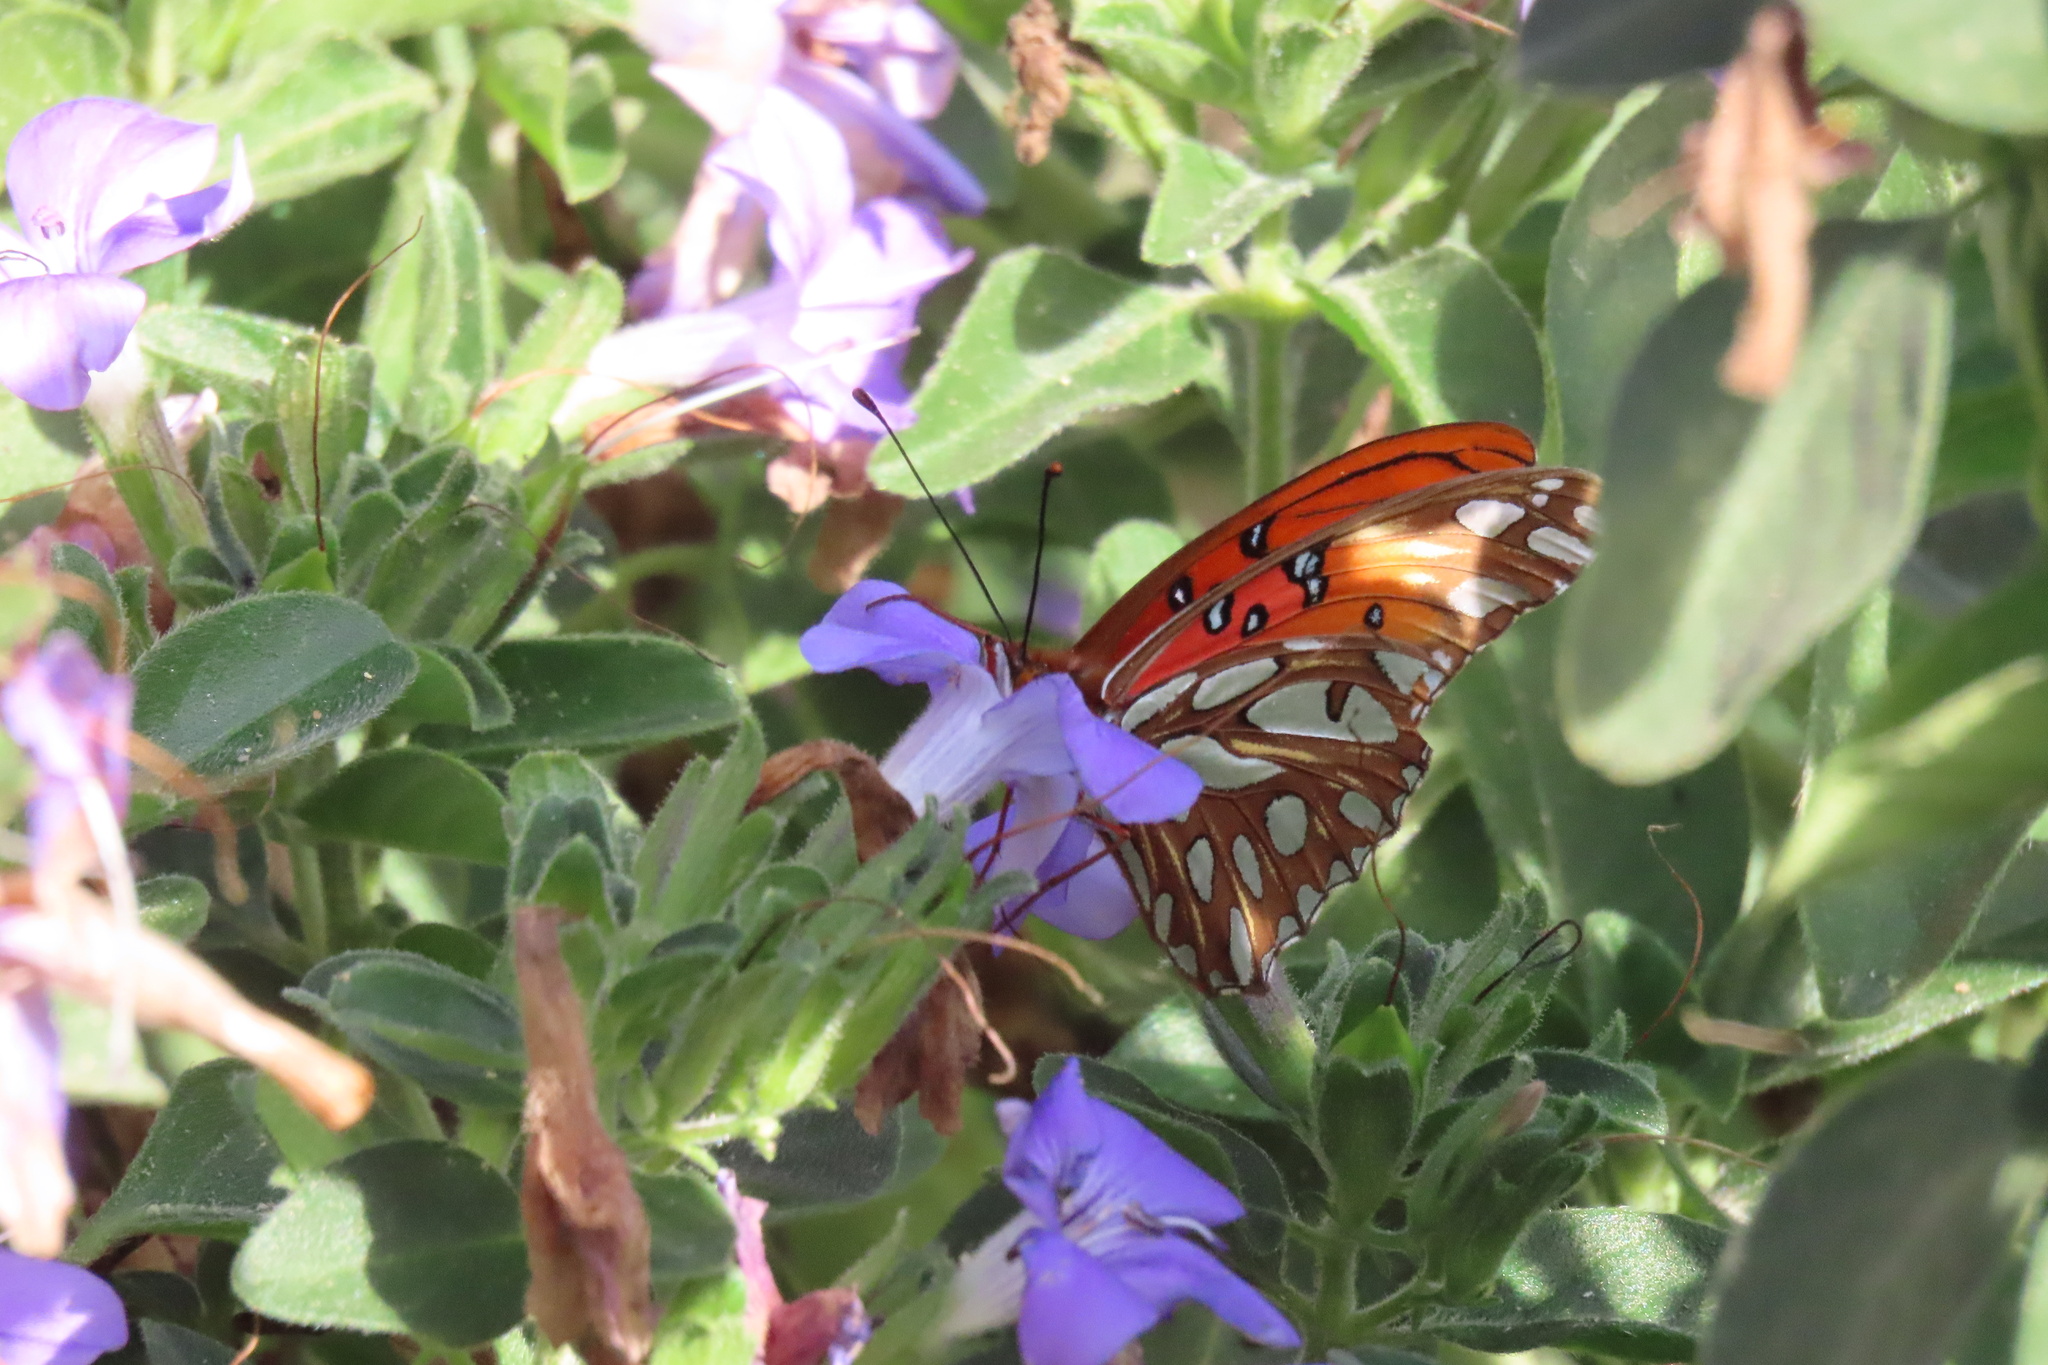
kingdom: Animalia
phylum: Arthropoda
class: Insecta
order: Lepidoptera
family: Nymphalidae
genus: Dione
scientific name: Dione vanillae
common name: Gulf fritillary
